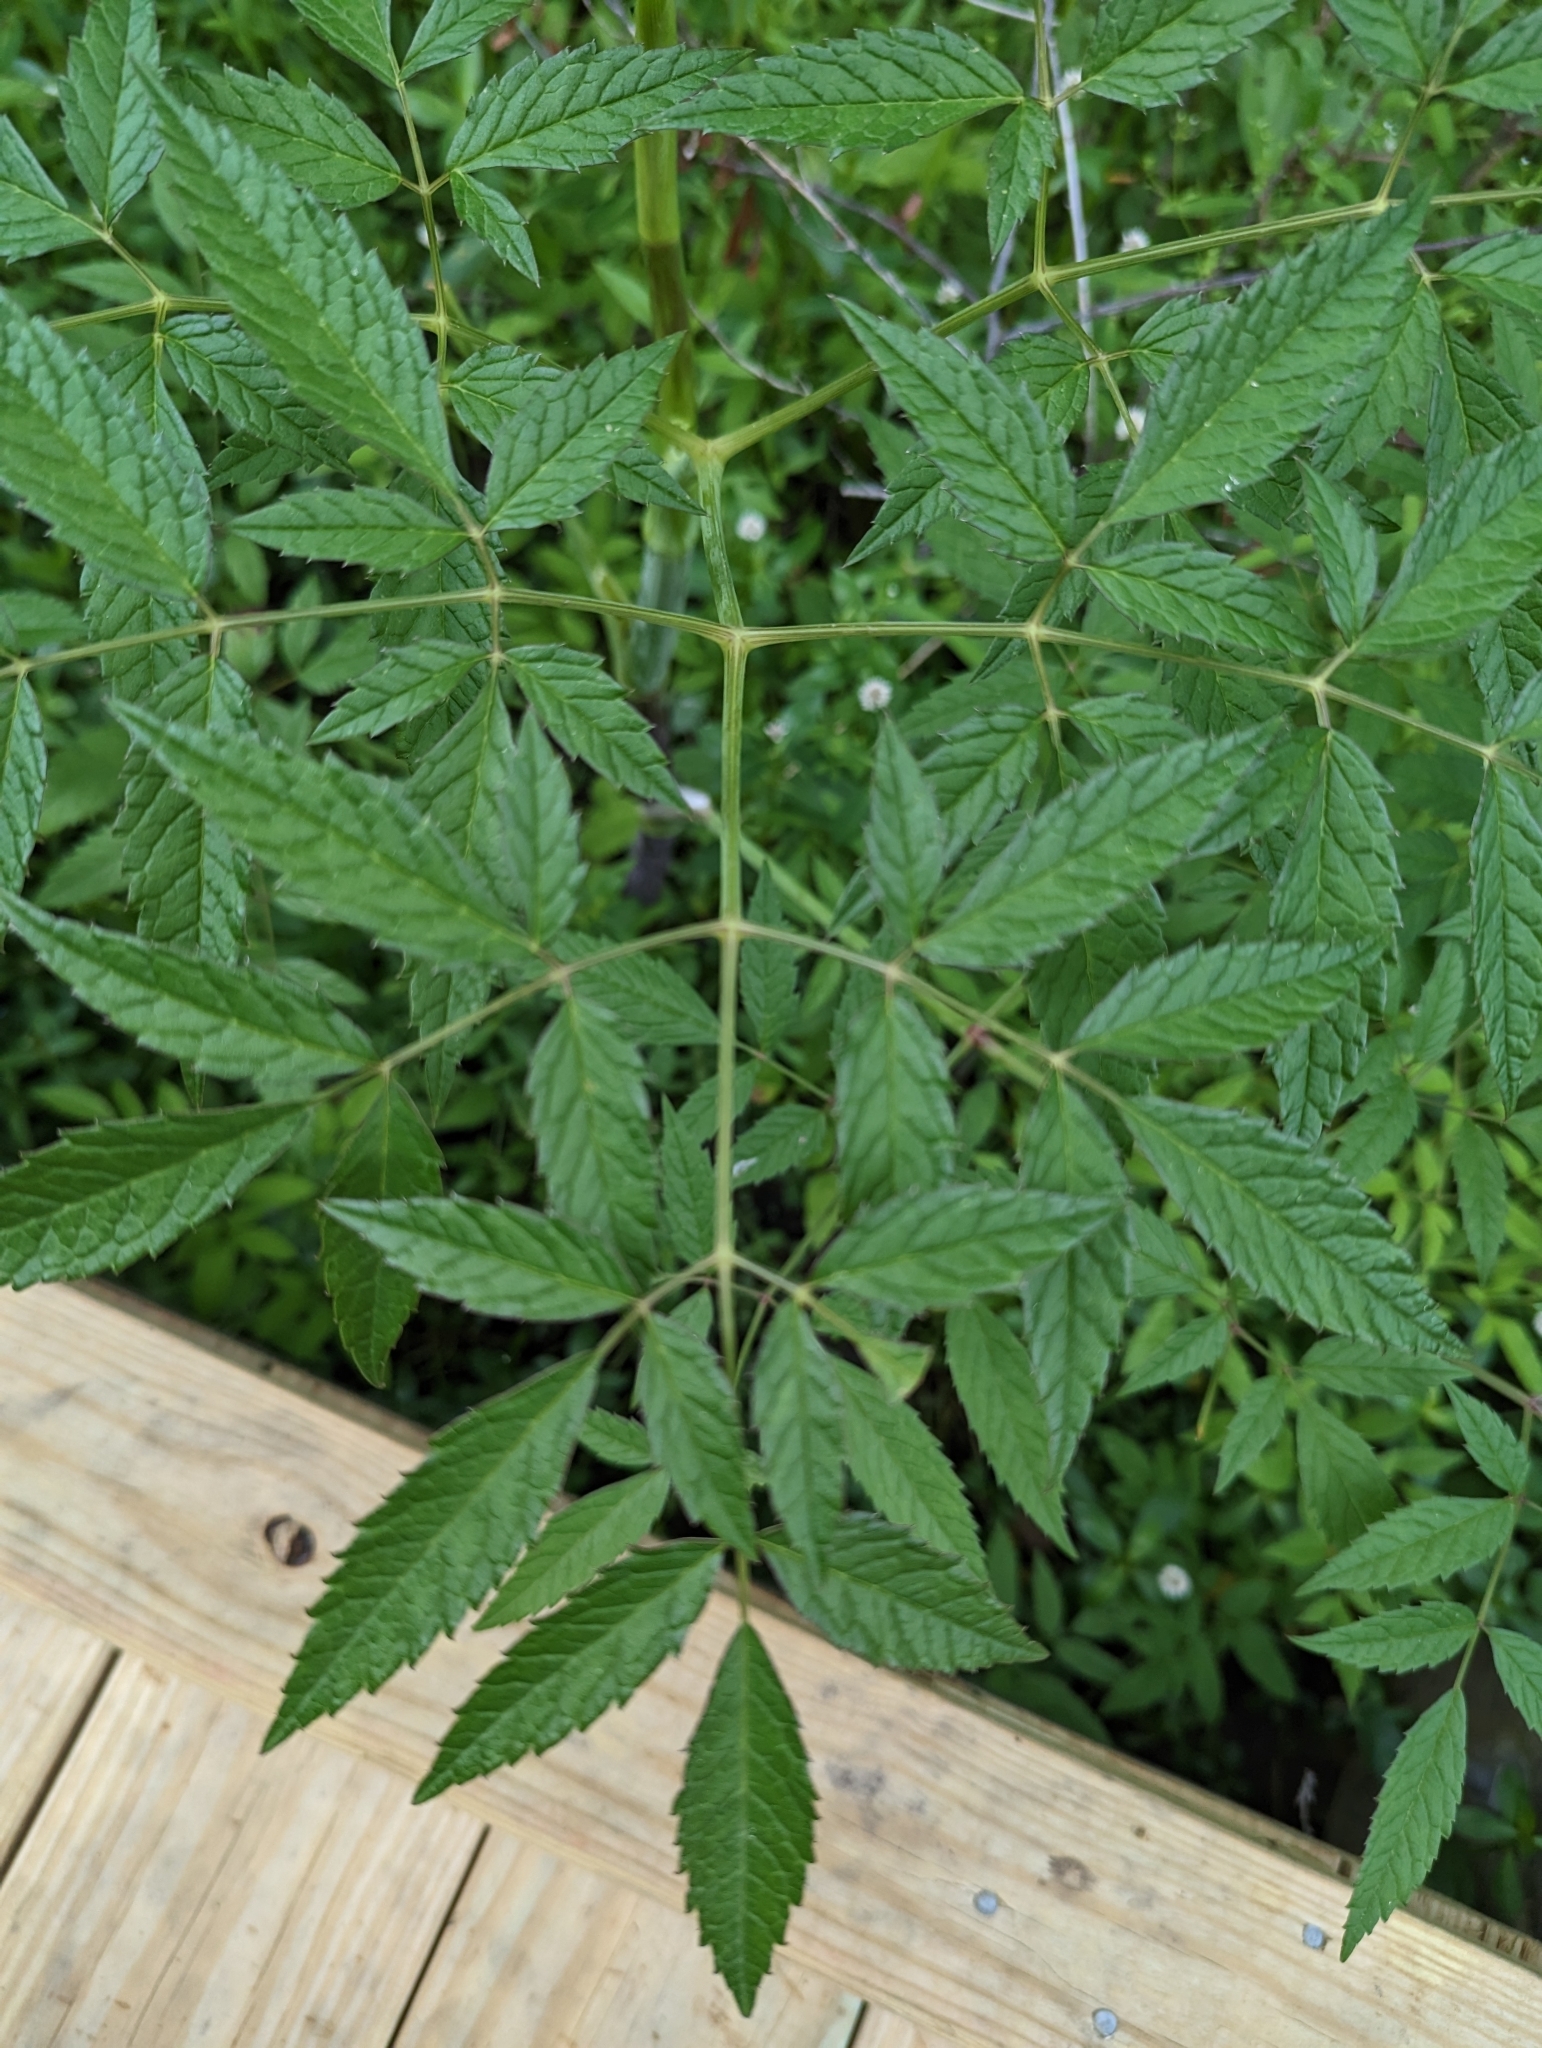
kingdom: Plantae
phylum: Tracheophyta
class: Magnoliopsida
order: Apiales
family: Apiaceae
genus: Cicuta
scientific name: Cicuta maculata
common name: Spotted cowbane
